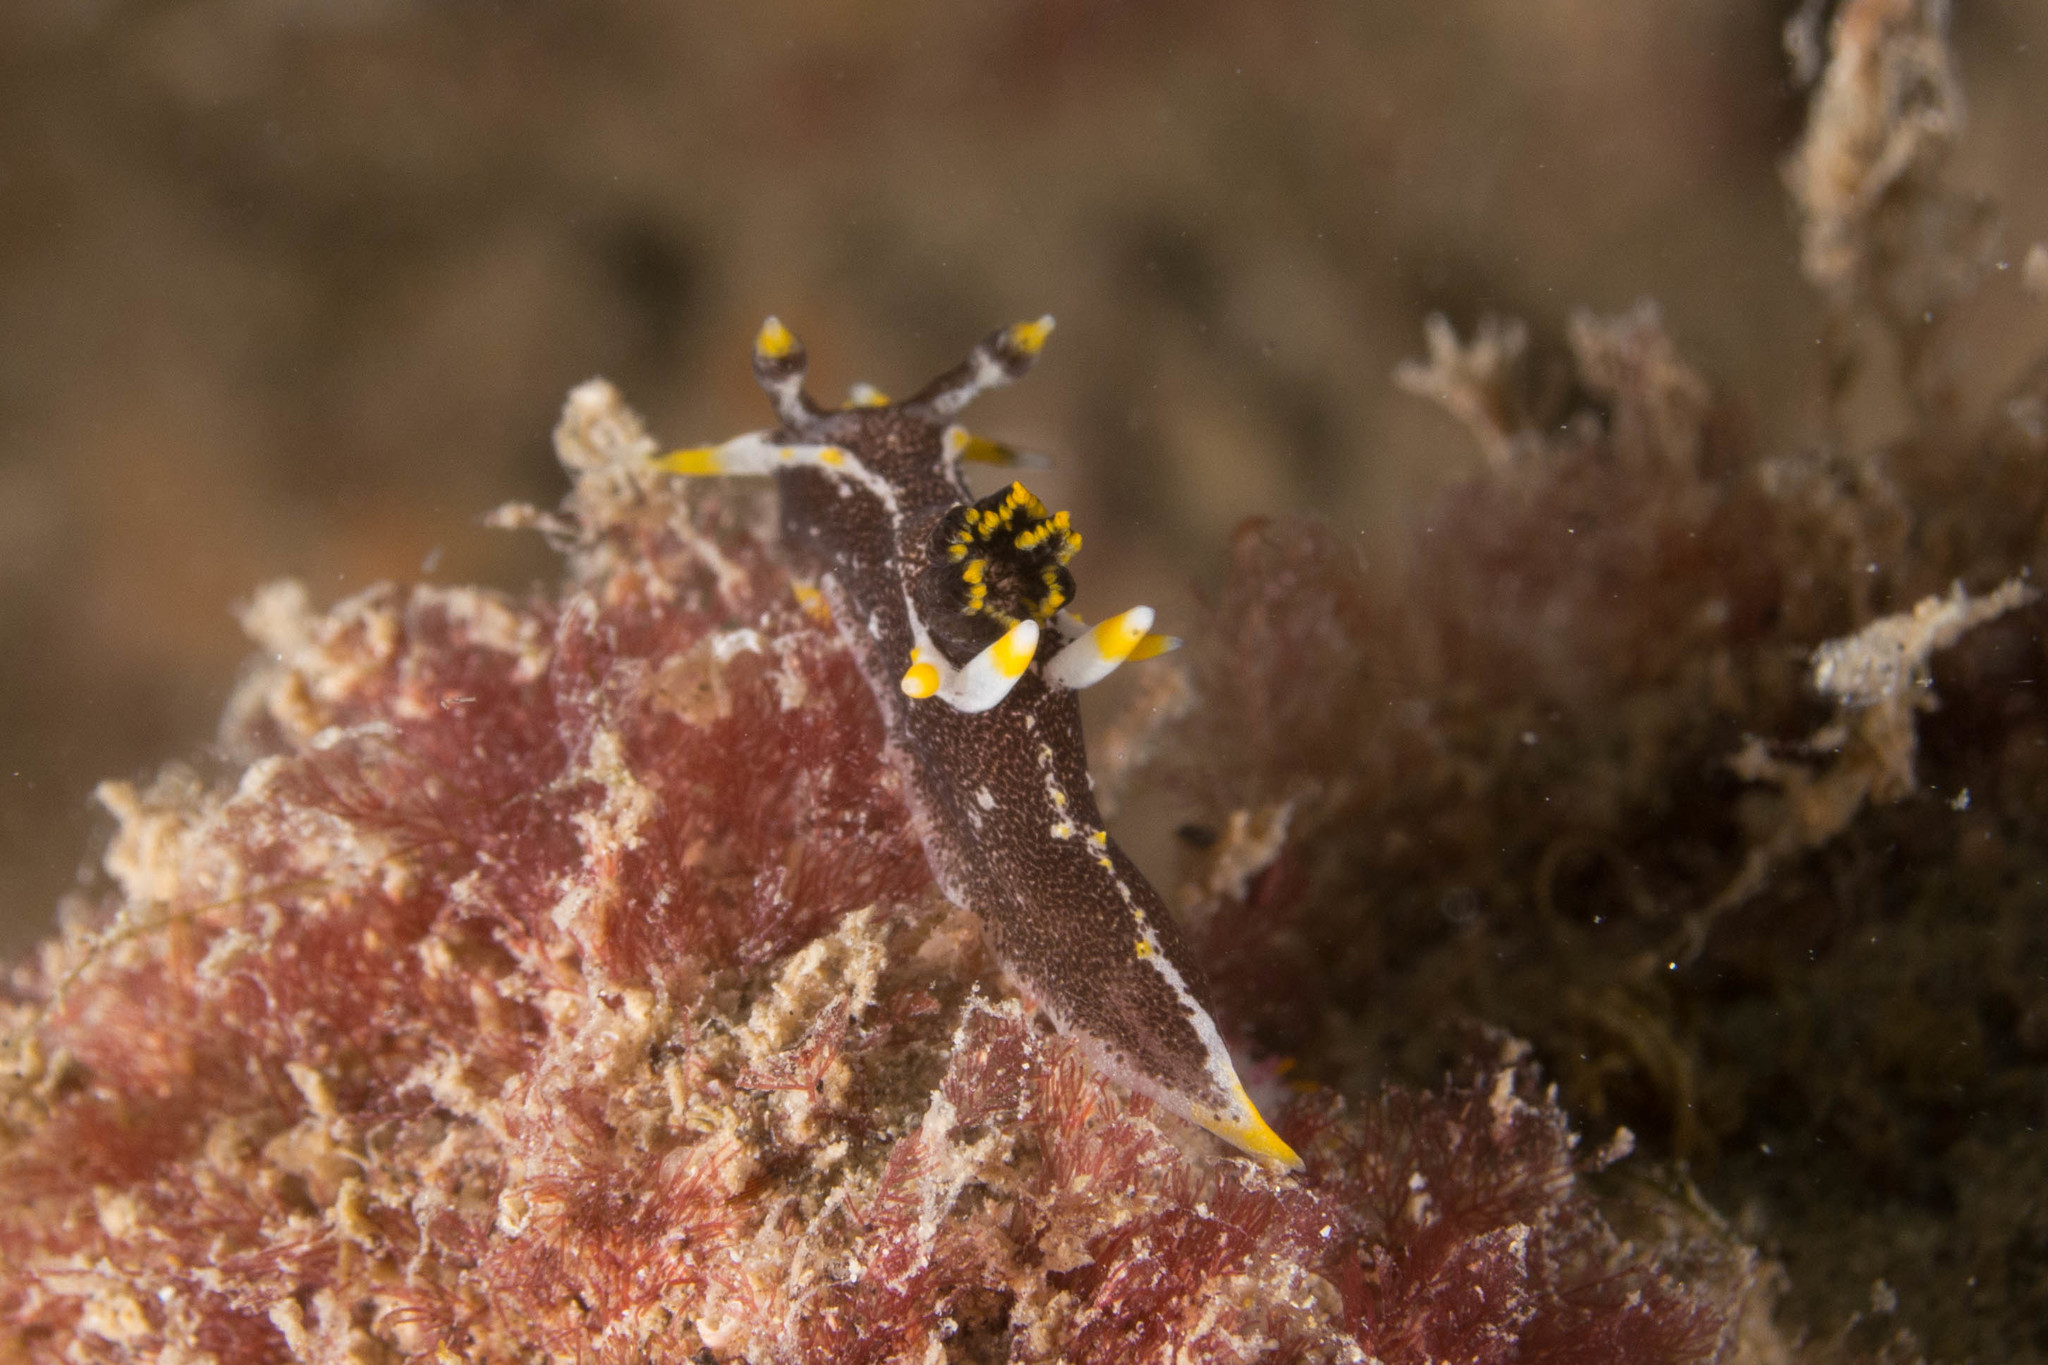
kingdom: Animalia
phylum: Mollusca
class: Gastropoda
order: Nudibranchia
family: Polyceridae
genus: Polycera
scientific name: Polycera hedgpethi
